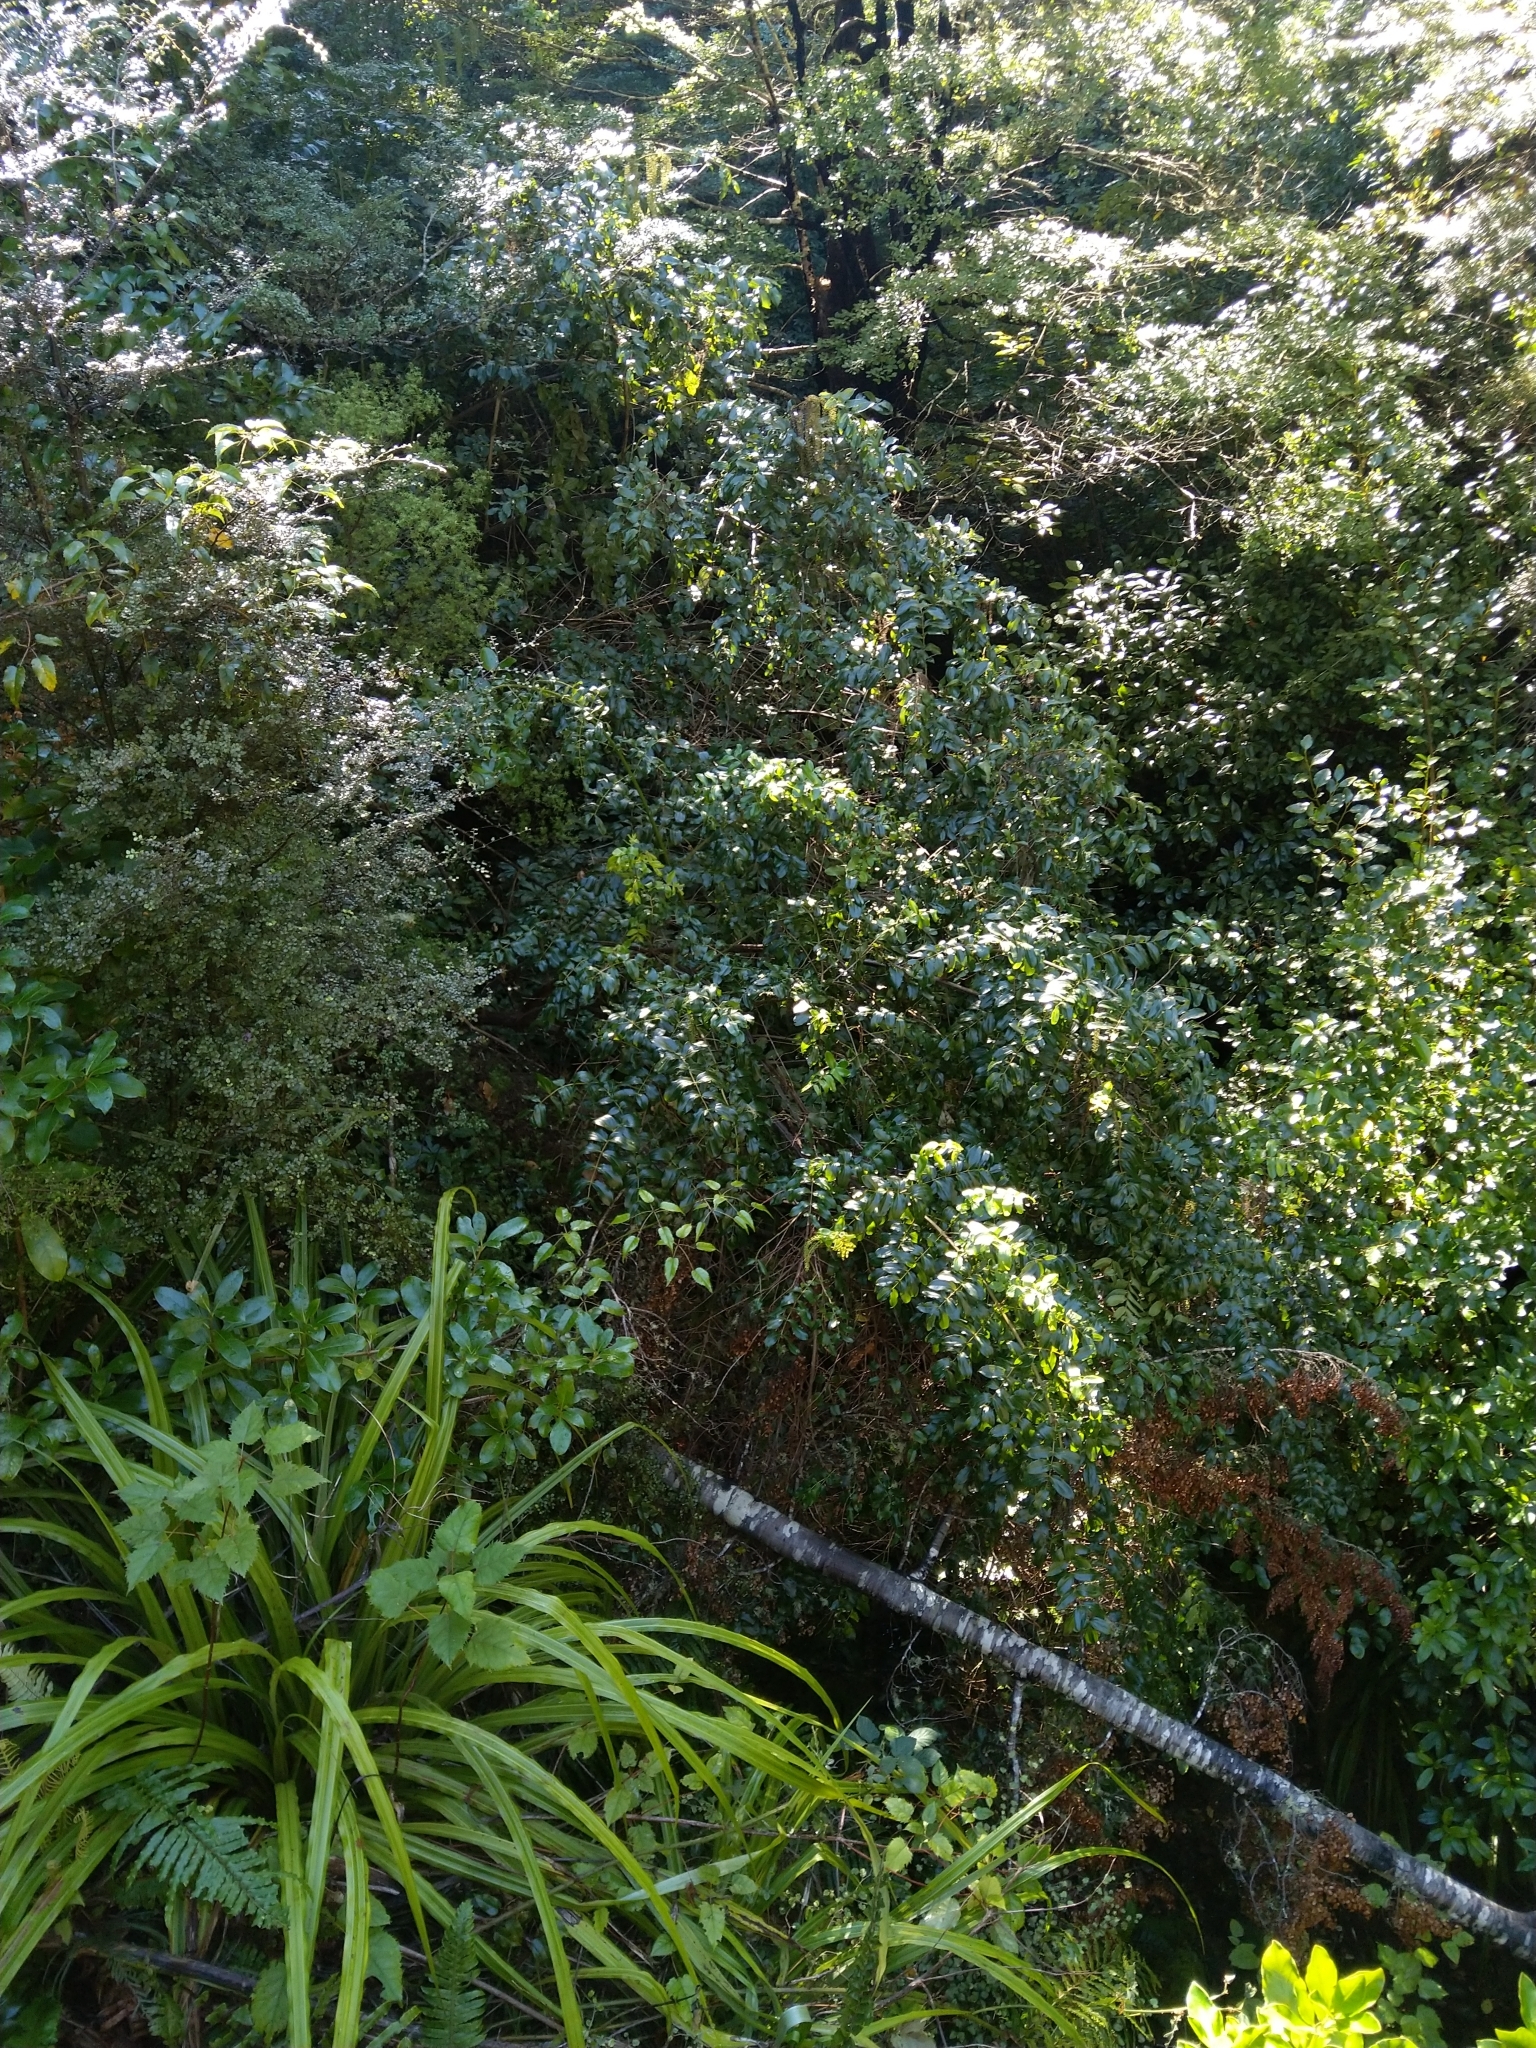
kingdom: Plantae
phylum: Tracheophyta
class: Magnoliopsida
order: Cucurbitales
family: Coriariaceae
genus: Coriaria
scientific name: Coriaria arborea
